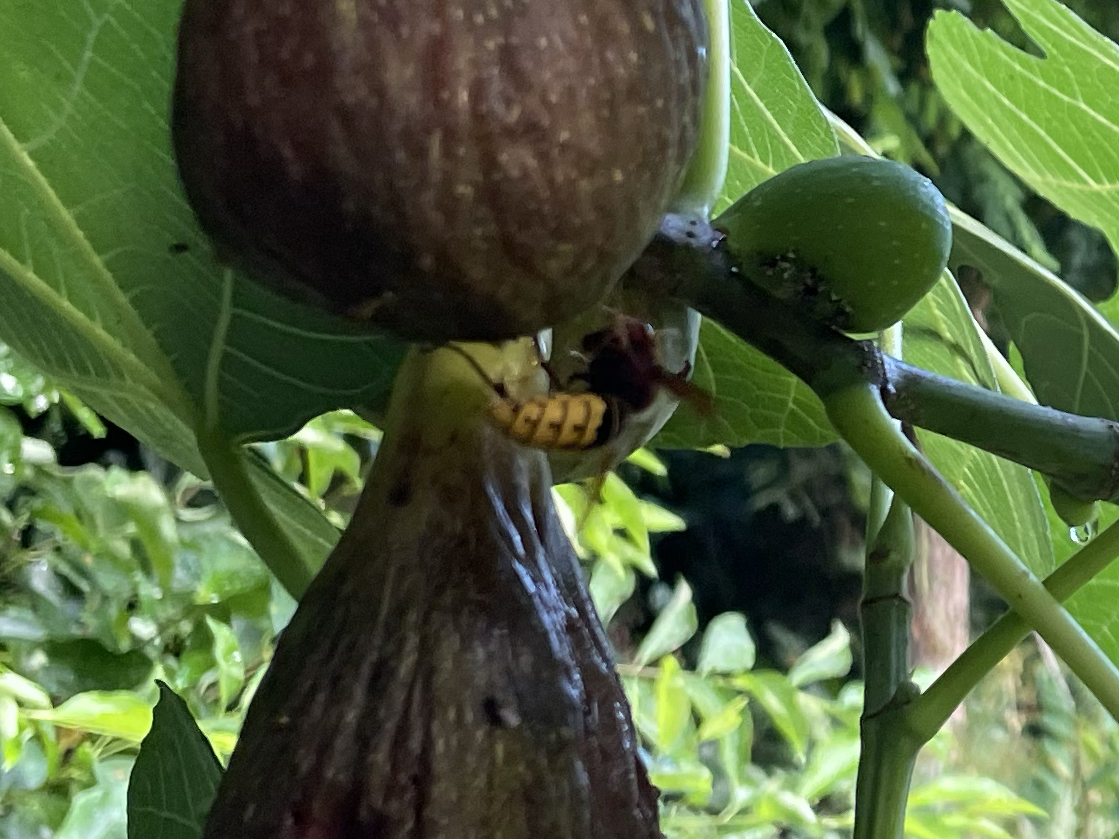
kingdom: Animalia
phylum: Arthropoda
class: Insecta
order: Hymenoptera
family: Vespidae
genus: Vespa
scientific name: Vespa crabro
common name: Hornet
